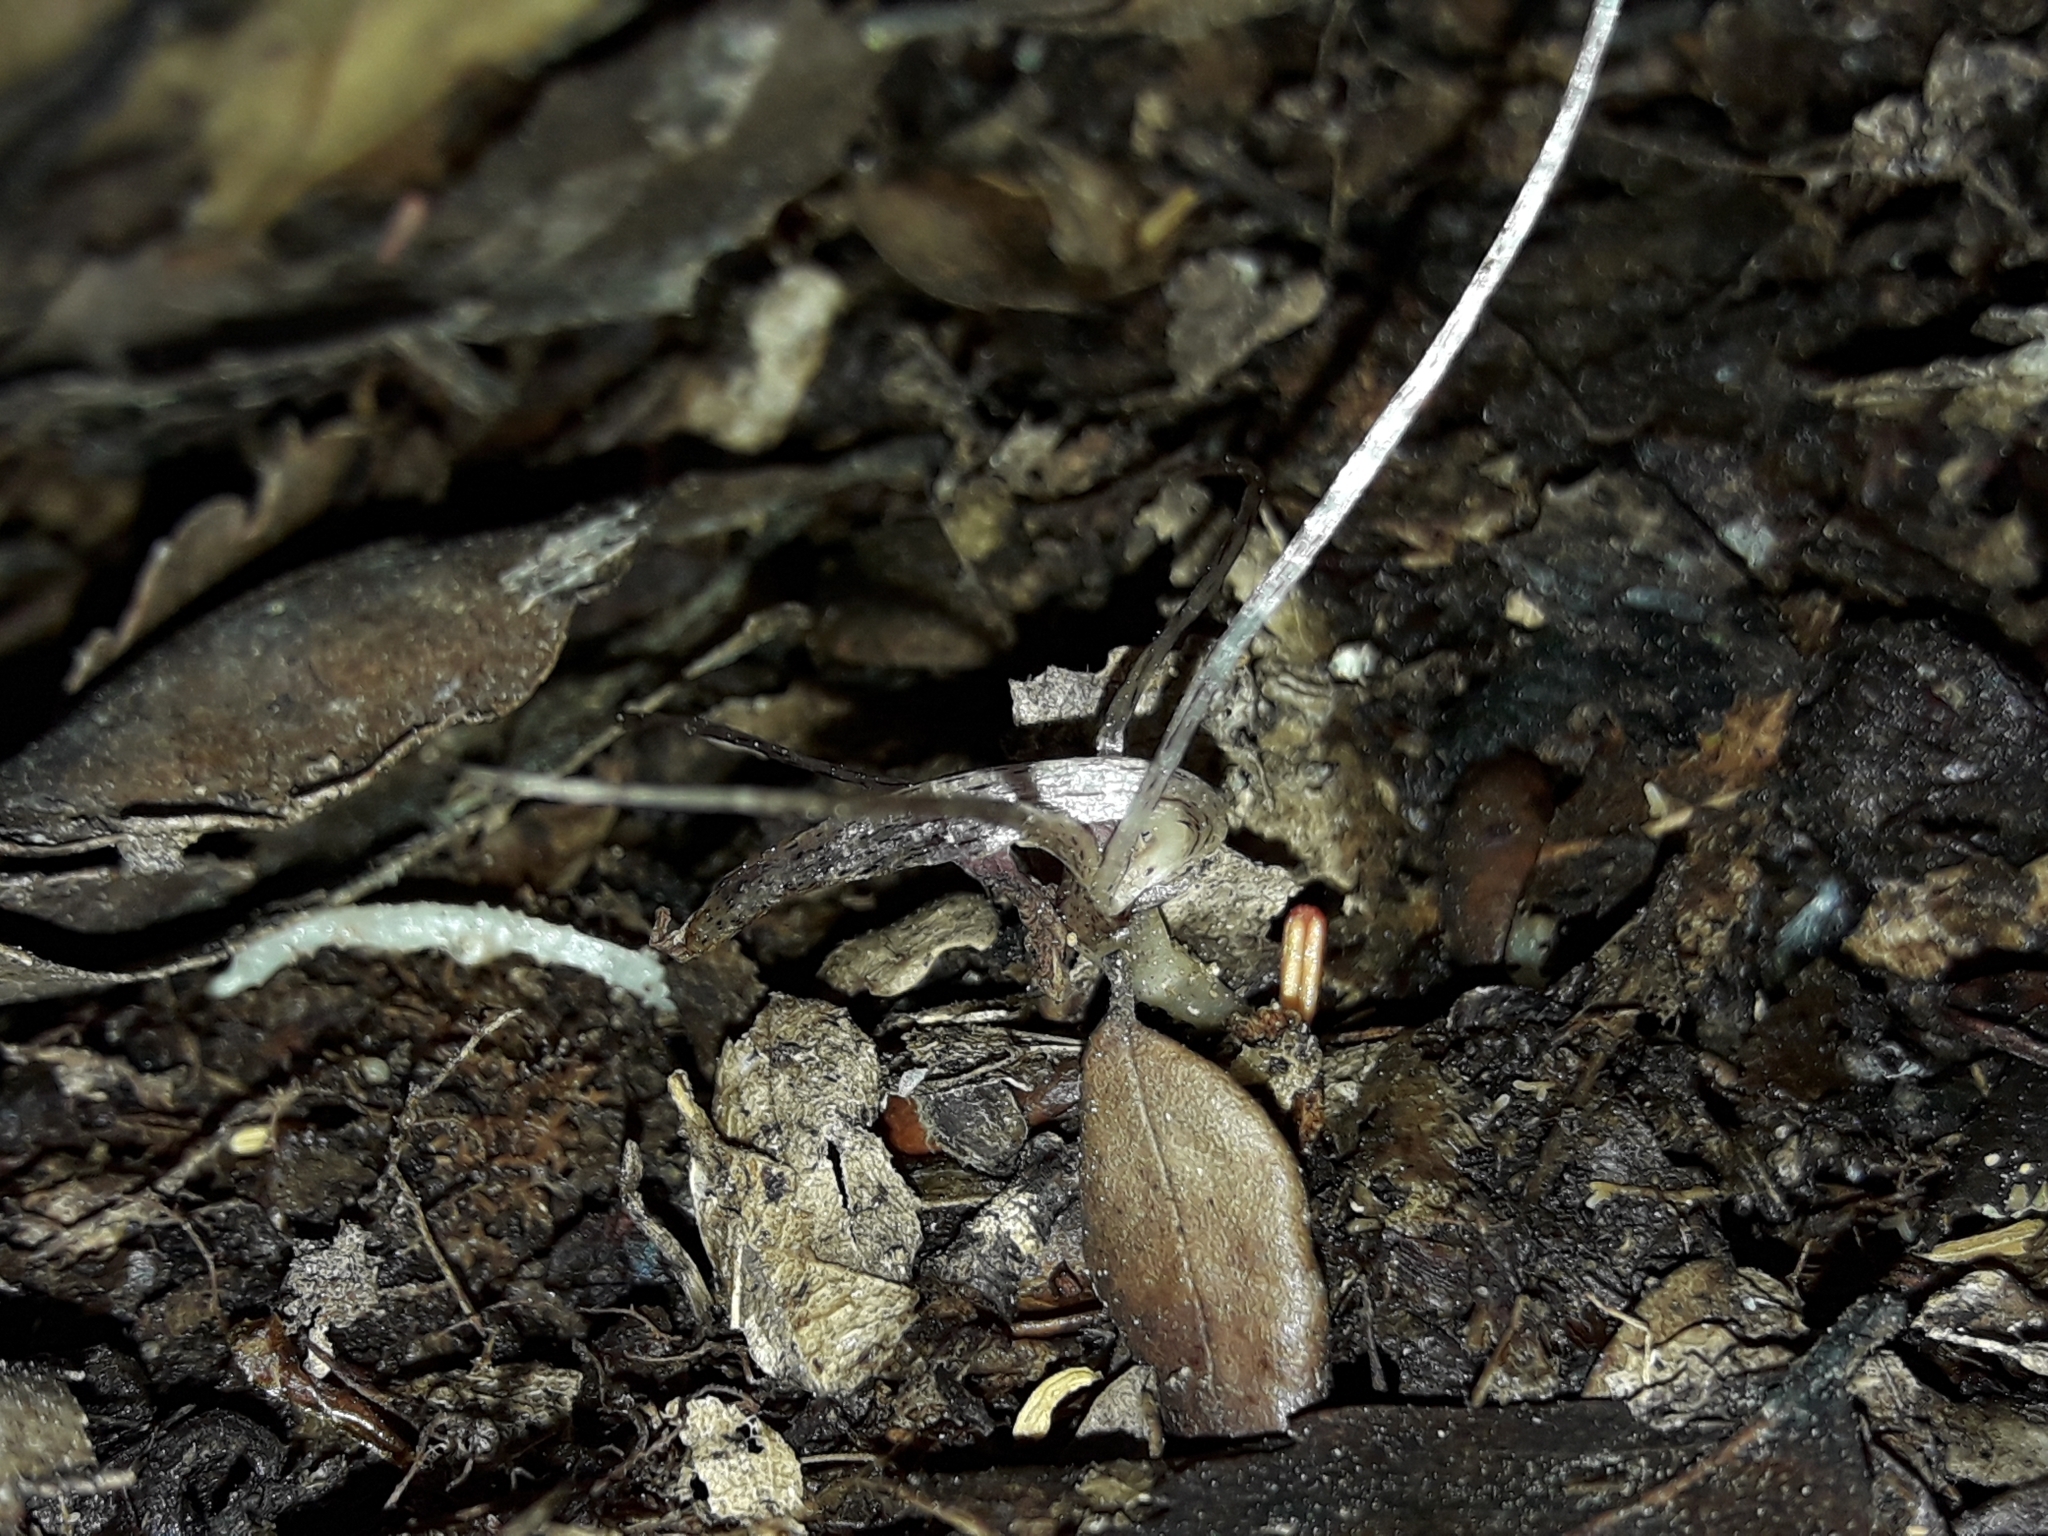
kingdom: Plantae
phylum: Tracheophyta
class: Liliopsida
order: Asparagales
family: Orchidaceae
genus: Corybas
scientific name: Corybas cryptanthus
